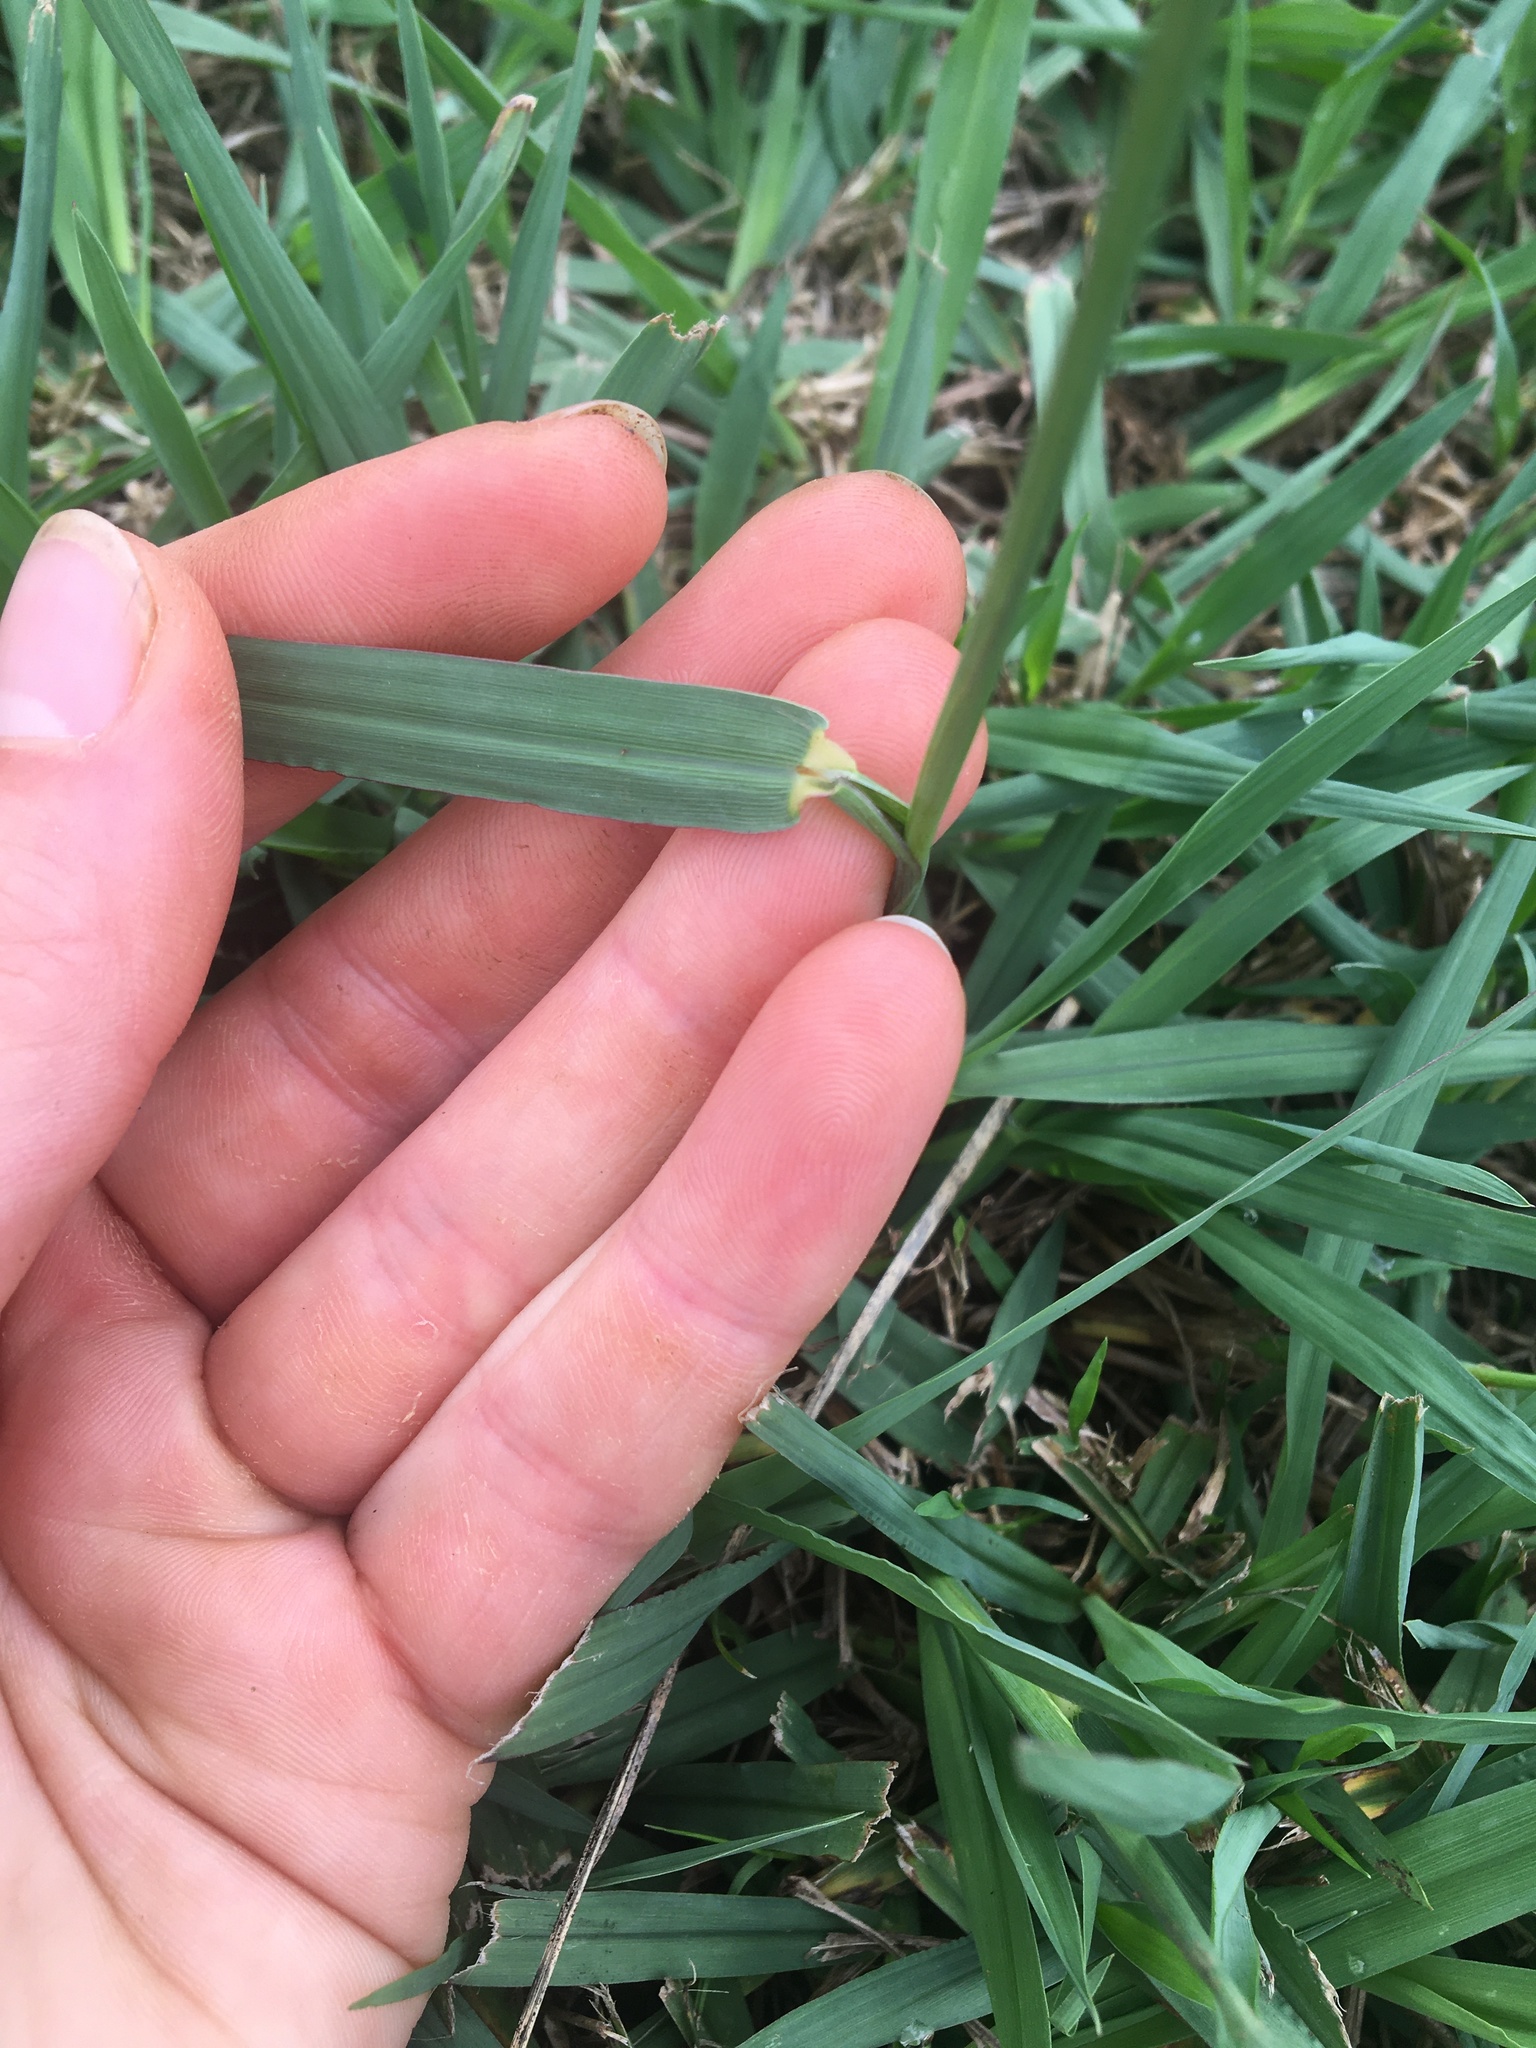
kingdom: Plantae
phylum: Tracheophyta
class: Liliopsida
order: Poales
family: Poaceae
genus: Paspalum
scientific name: Paspalum dilatatum
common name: Dallisgrass
